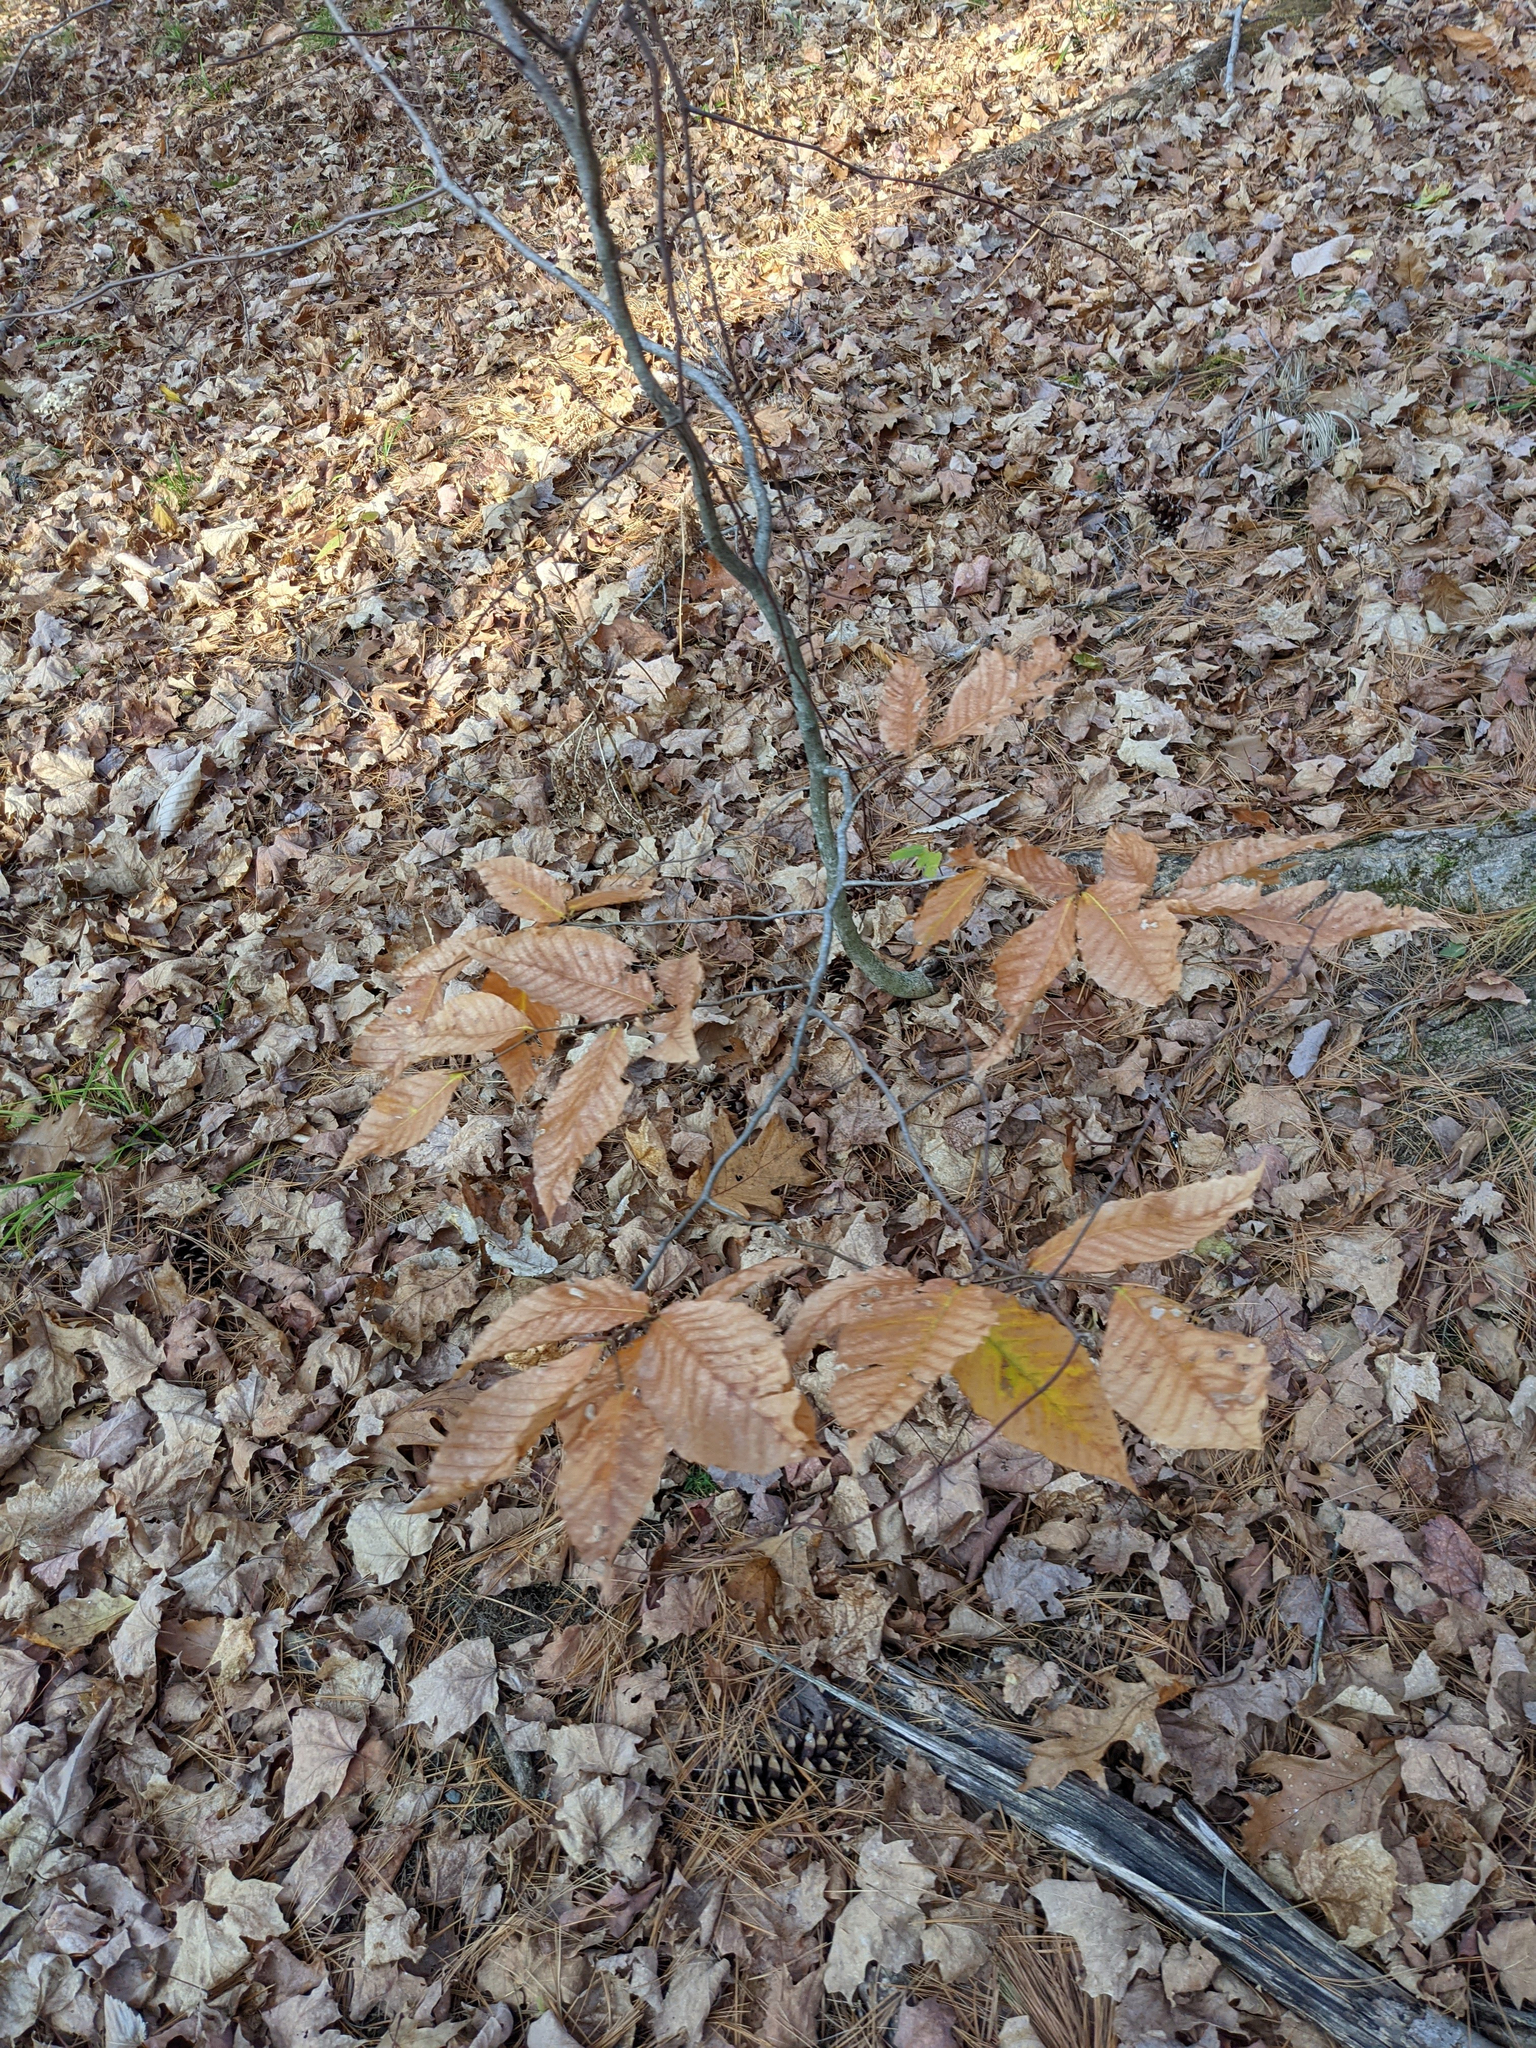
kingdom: Plantae
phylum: Tracheophyta
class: Magnoliopsida
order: Fagales
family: Fagaceae
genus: Fagus
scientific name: Fagus grandifolia
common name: American beech
